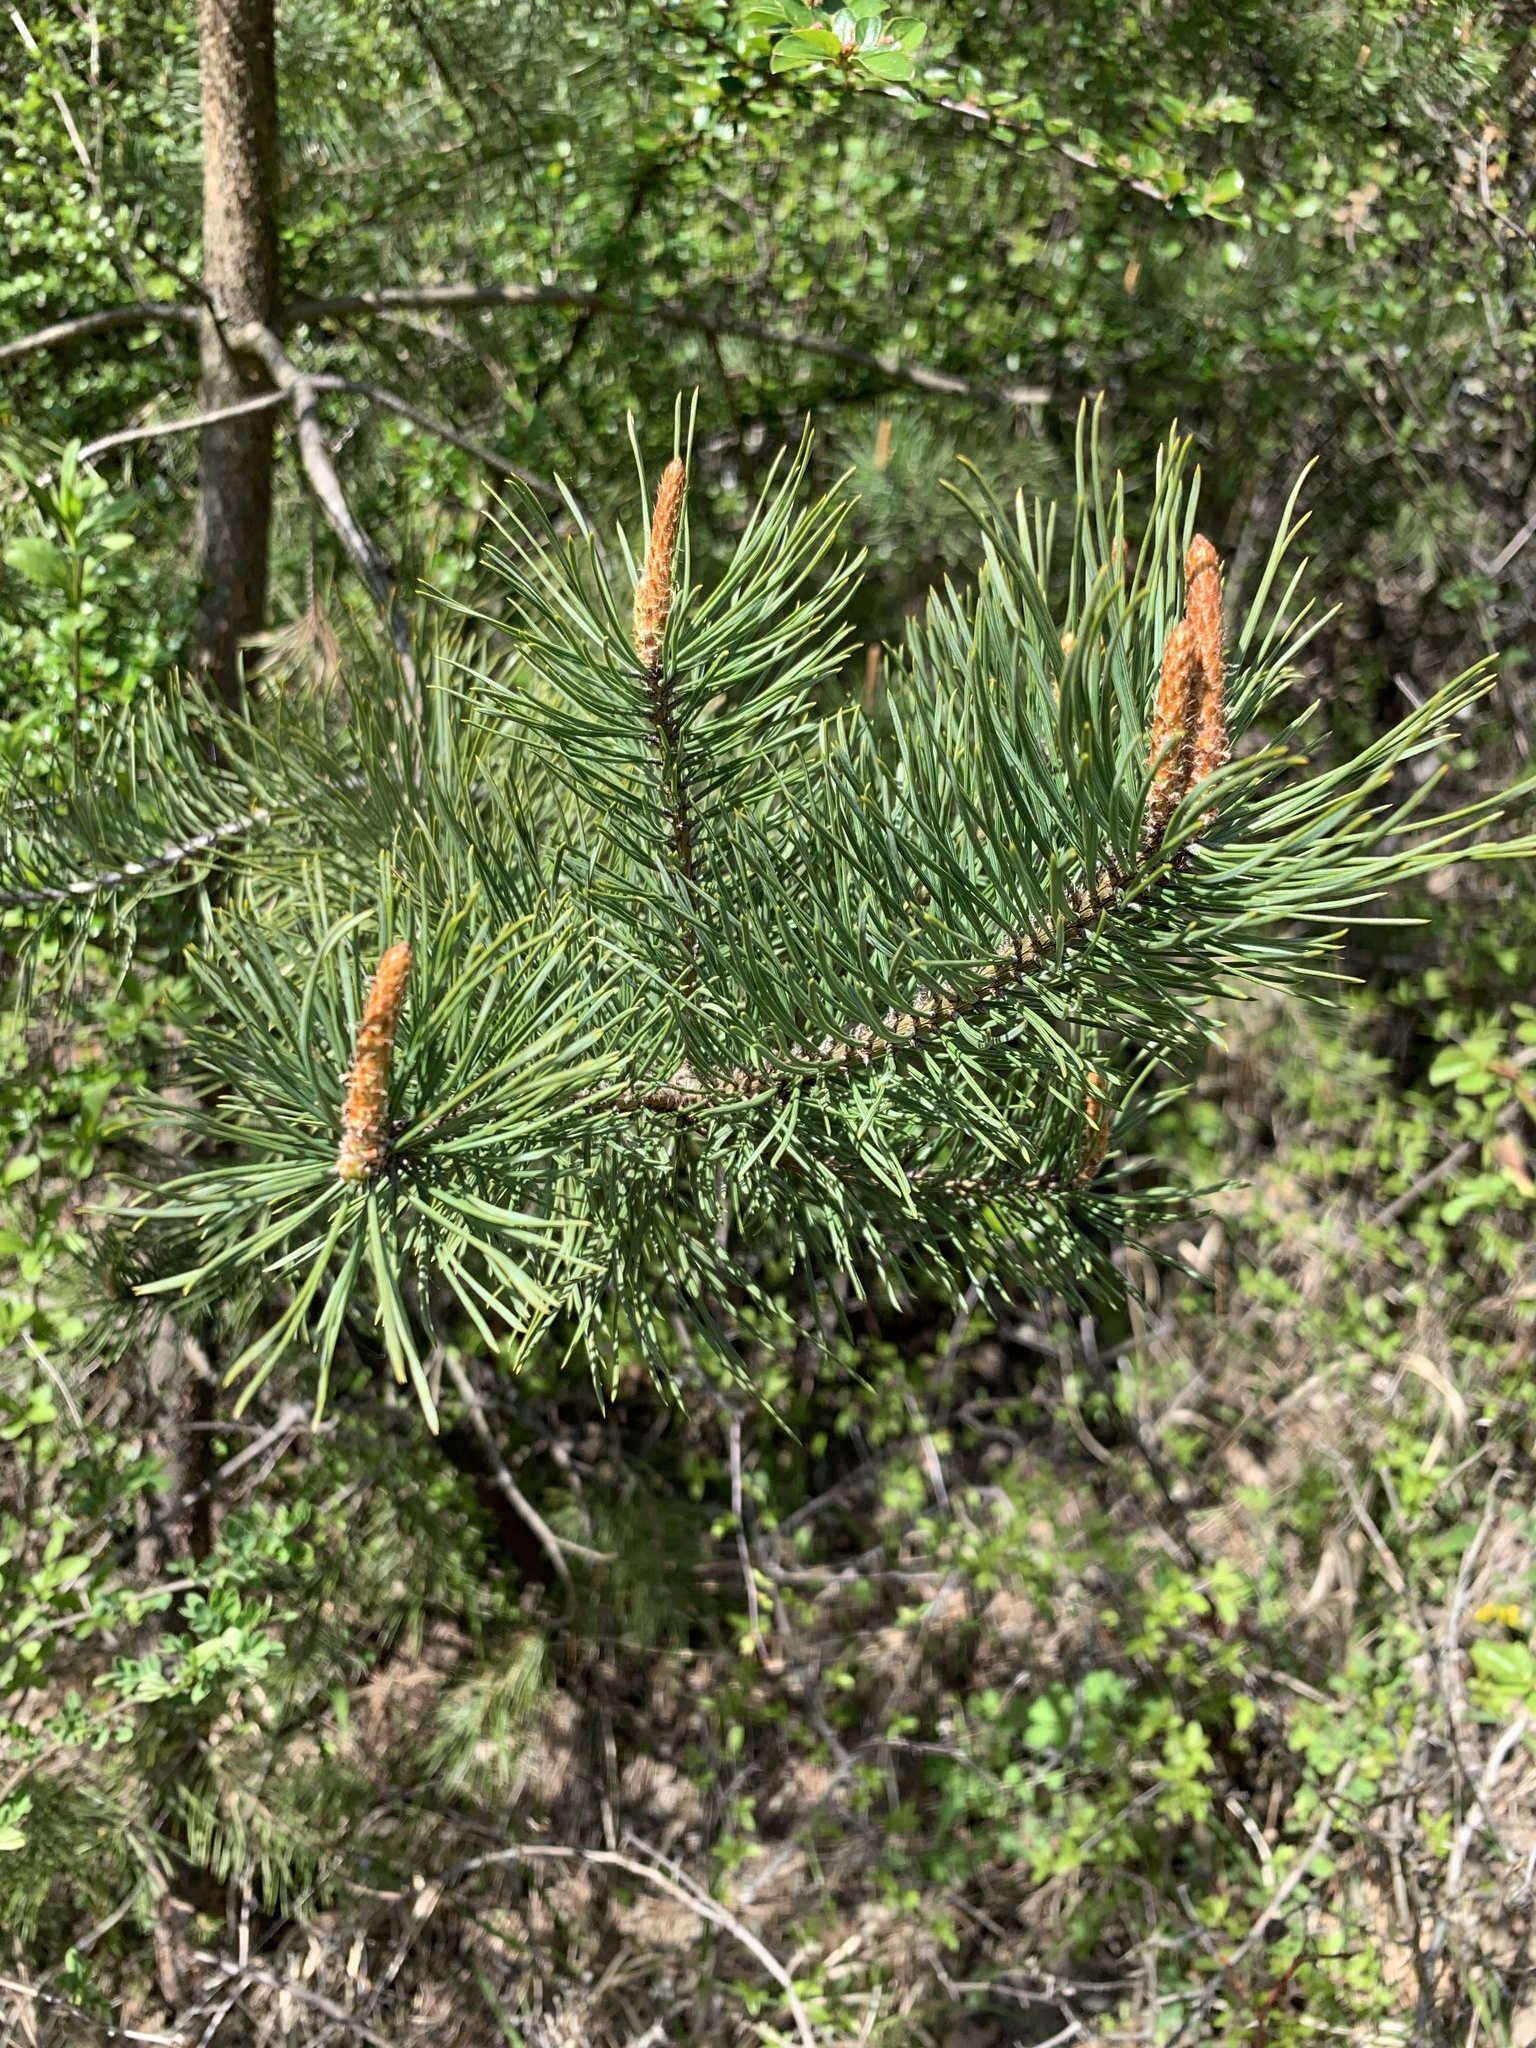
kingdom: Plantae
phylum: Tracheophyta
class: Pinopsida
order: Pinales
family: Pinaceae
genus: Pinus
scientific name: Pinus sylvestris
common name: Scots pine
